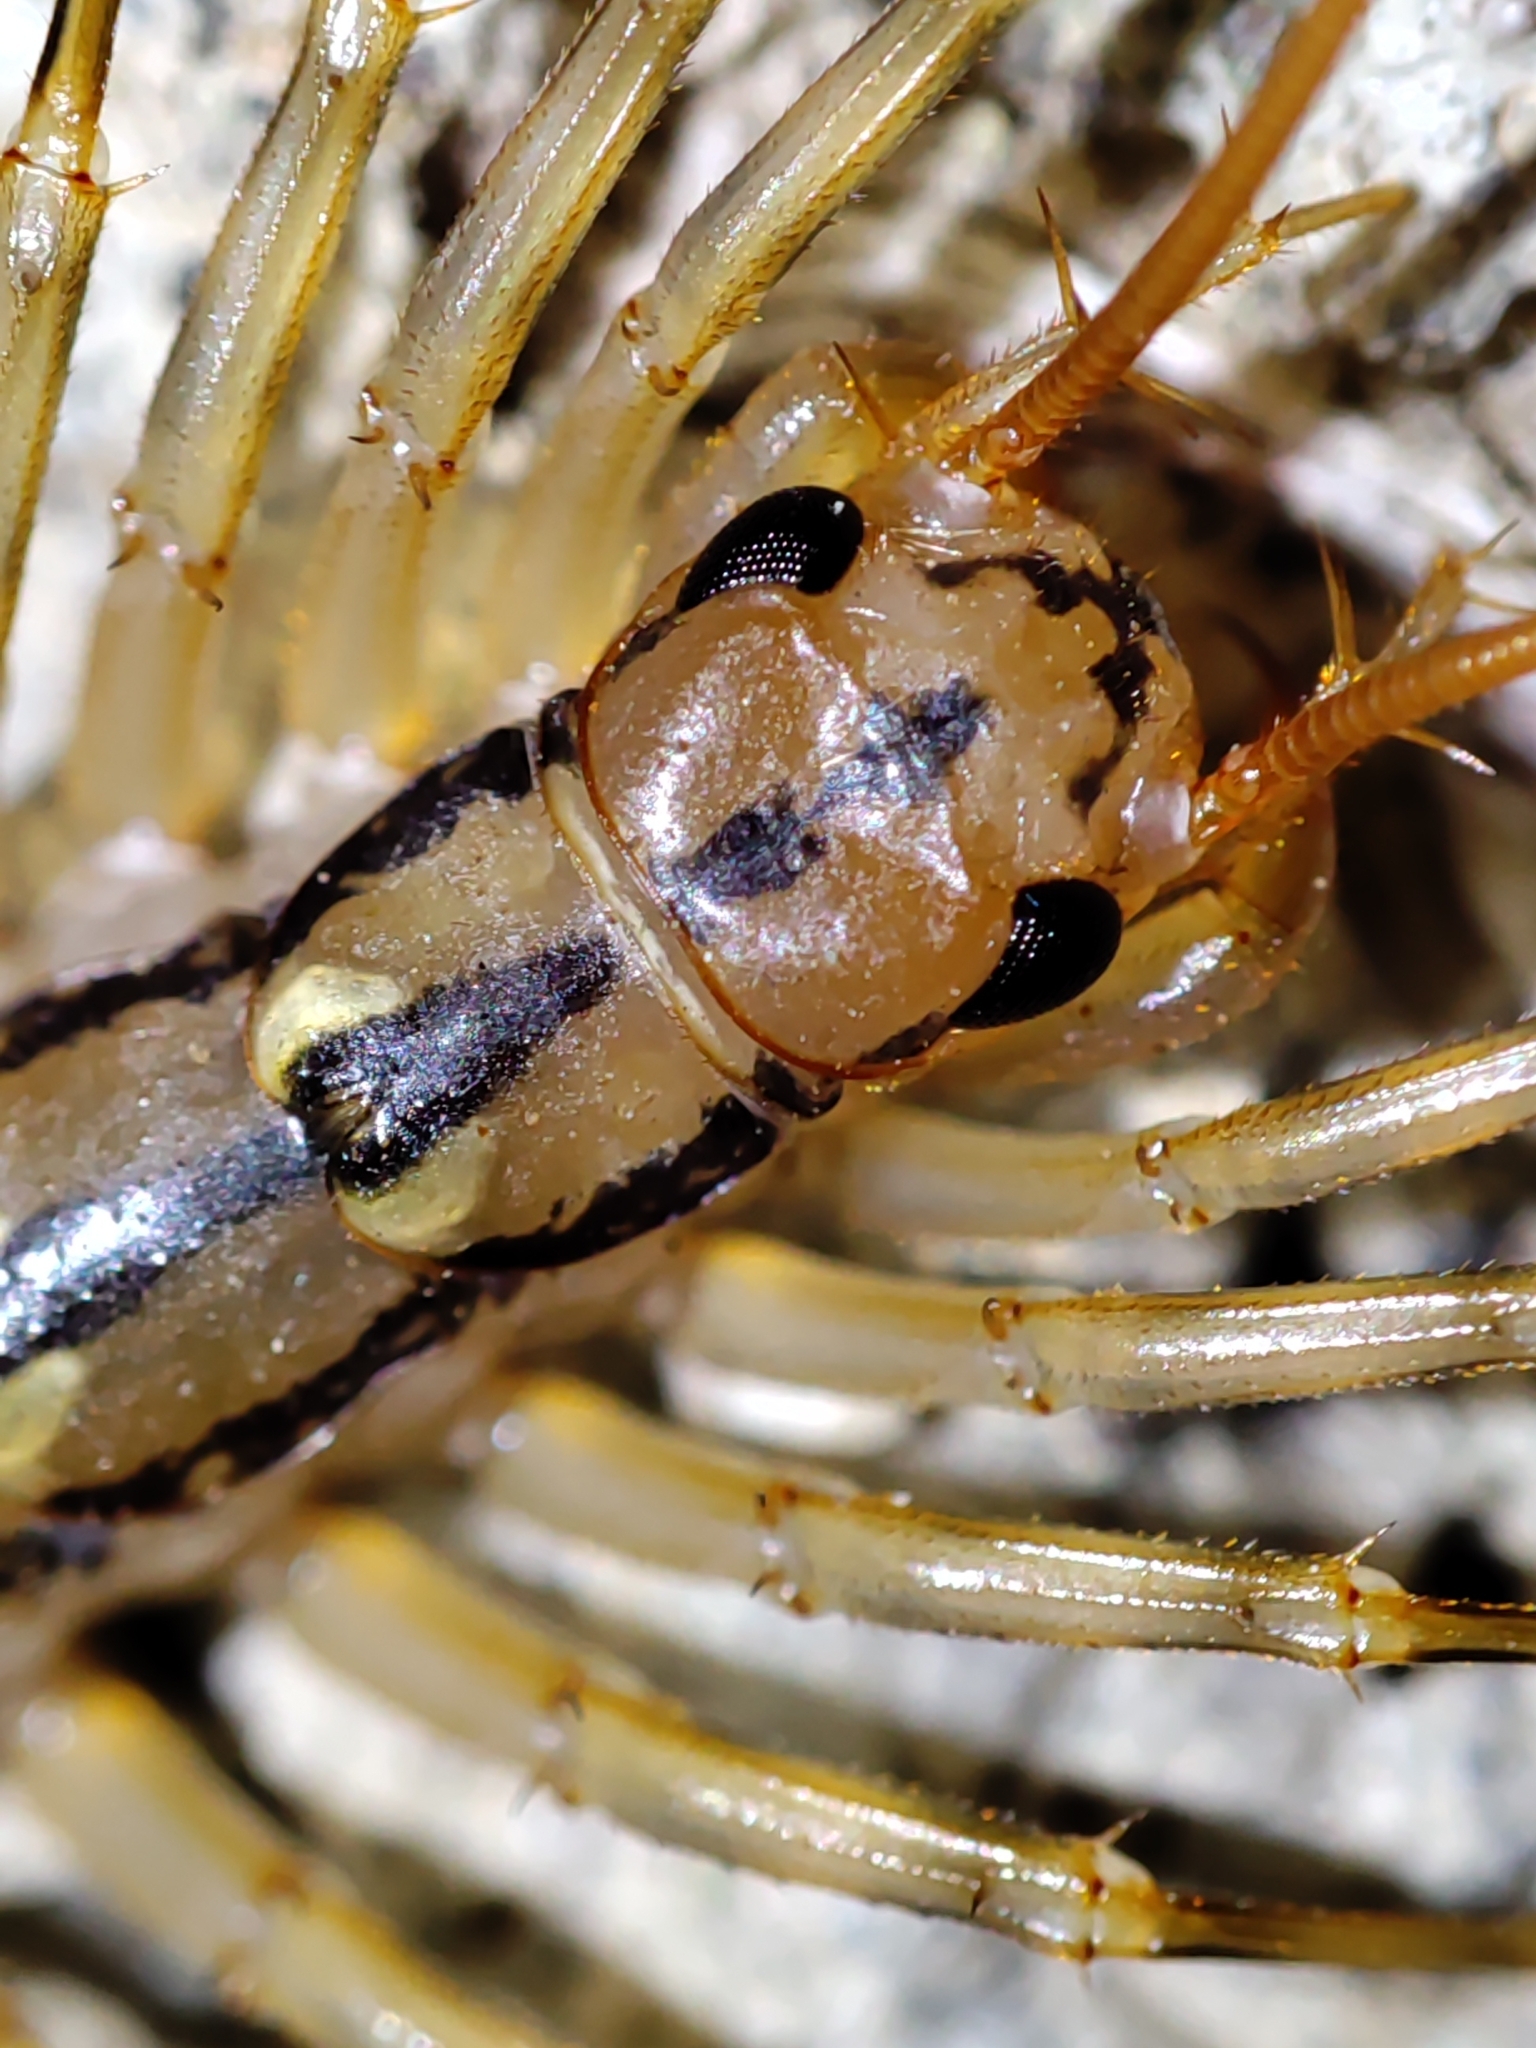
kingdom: Animalia
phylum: Arthropoda
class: Chilopoda
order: Scutigeromorpha
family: Scutigeridae
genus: Scutigera
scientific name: Scutigera coleoptrata
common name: House centipede
